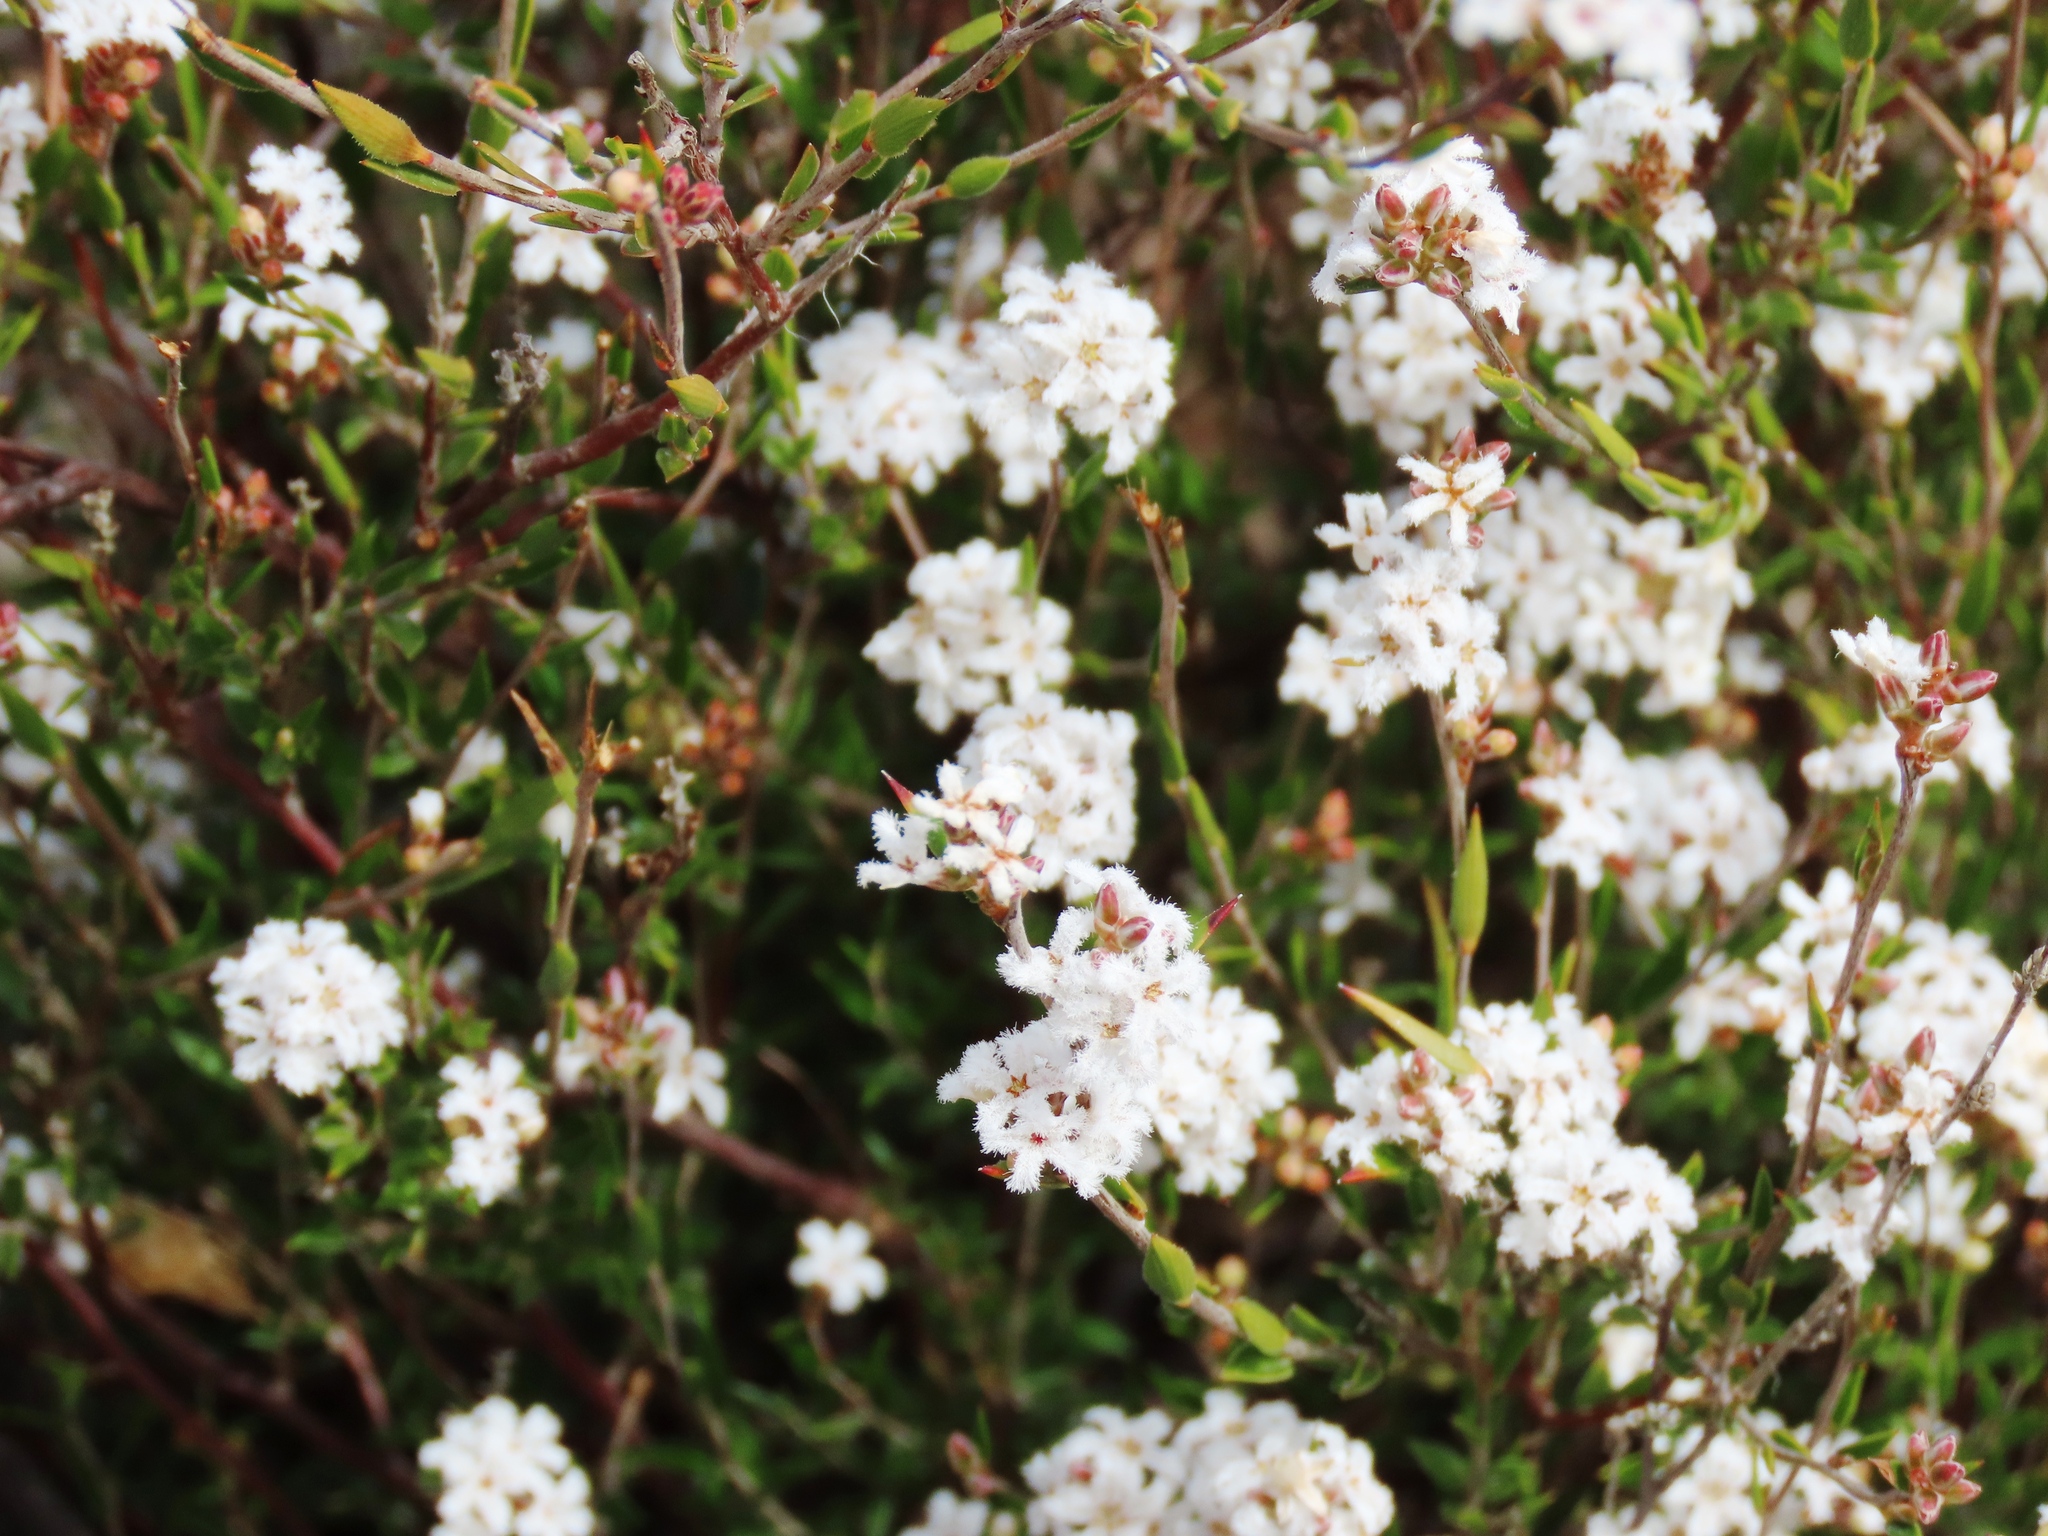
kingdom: Plantae
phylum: Tracheophyta
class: Magnoliopsida
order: Ericales
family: Ericaceae
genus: Leucopogon
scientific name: Leucopogon virgatus
